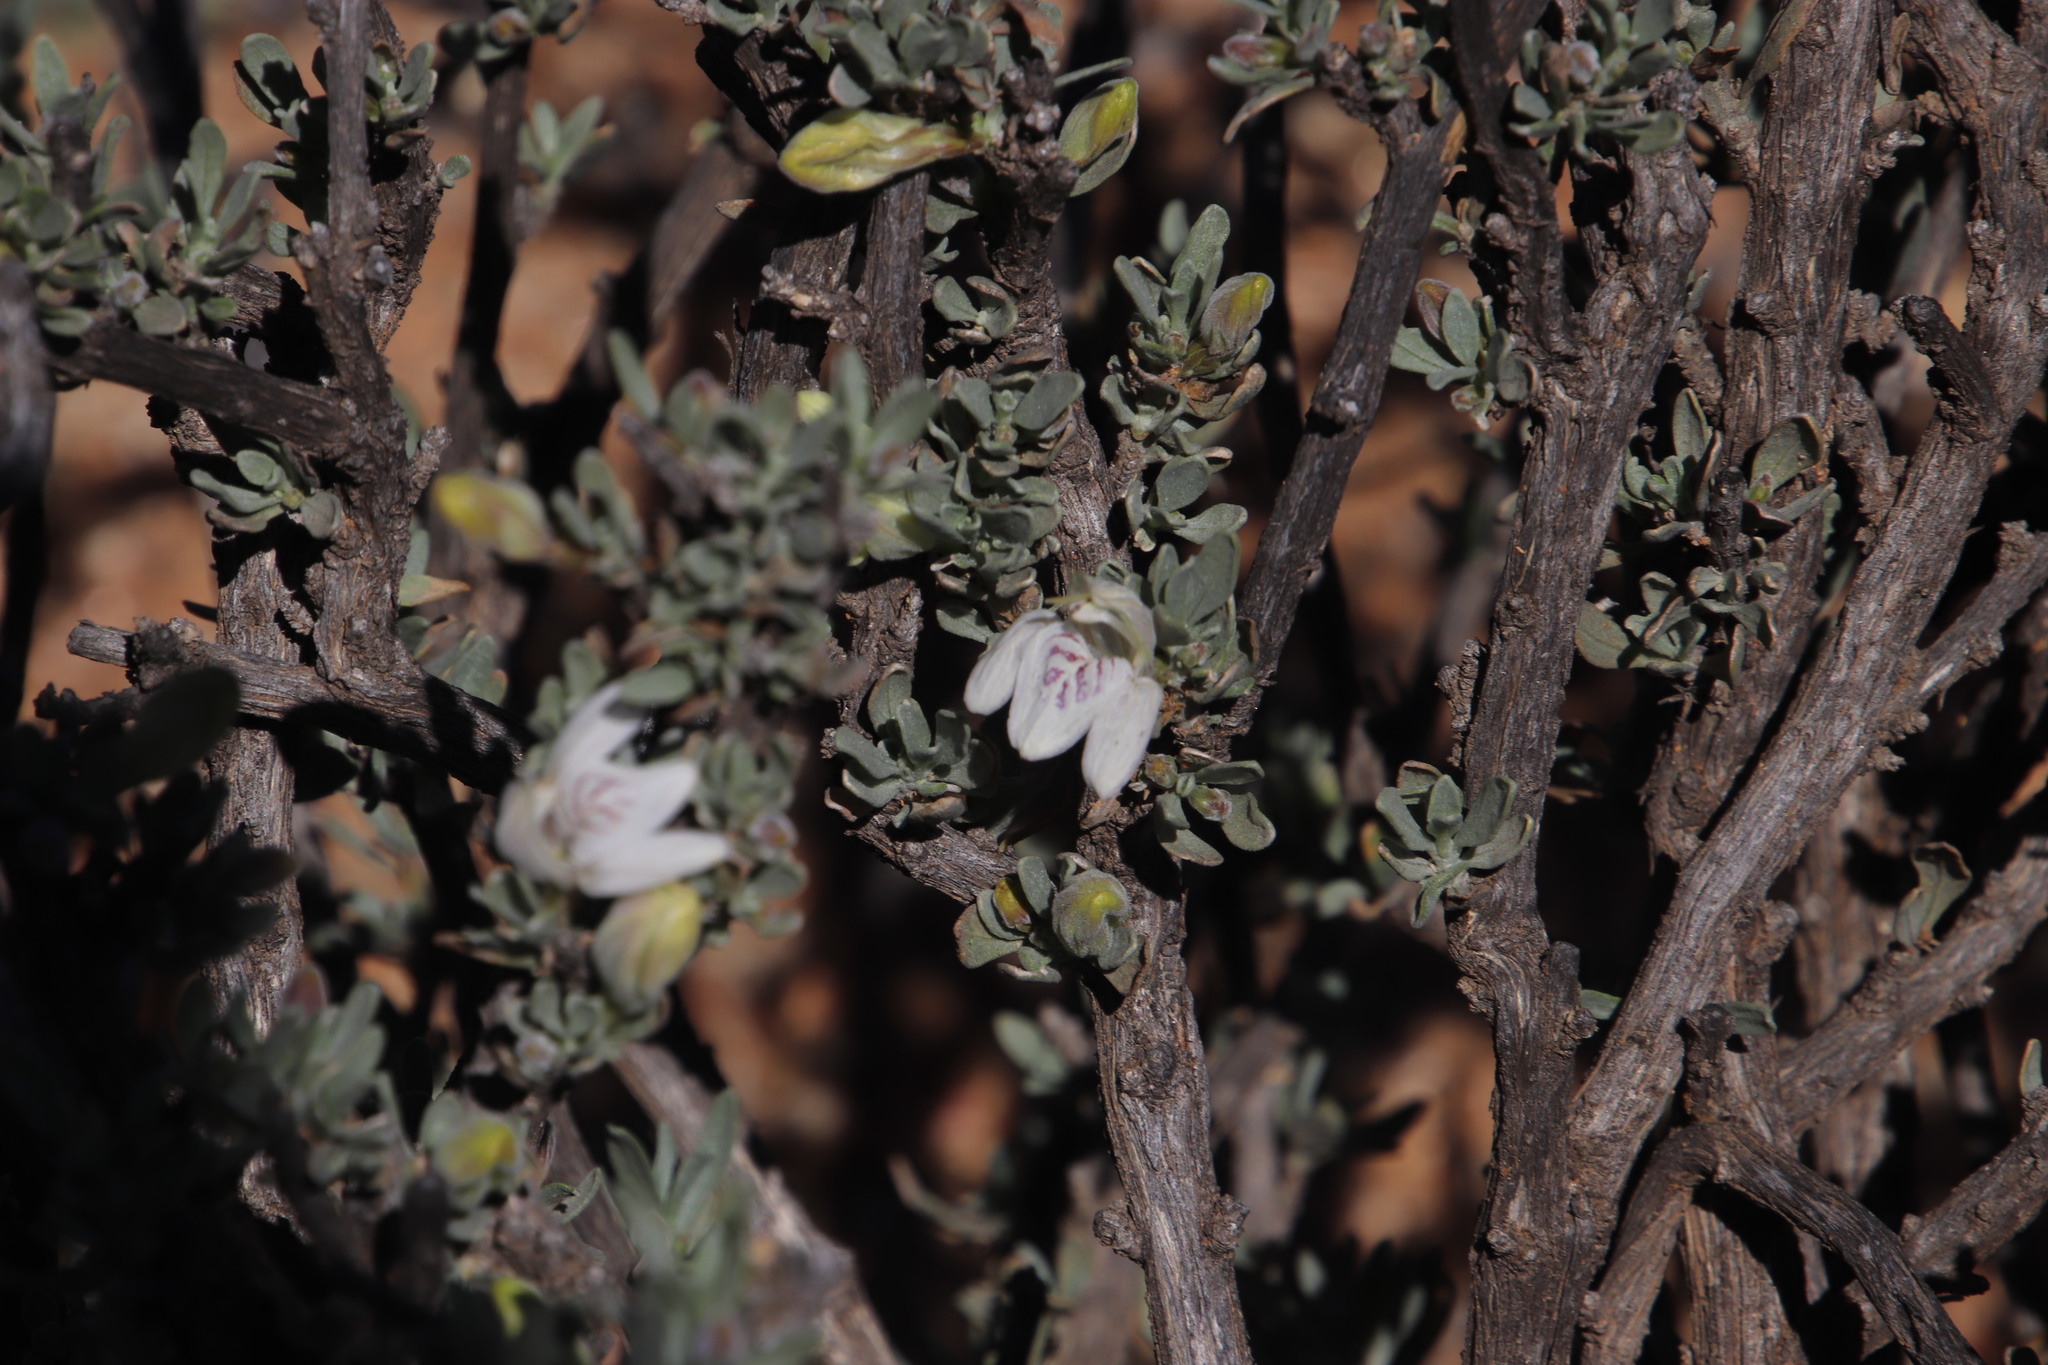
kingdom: Plantae
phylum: Tracheophyta
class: Magnoliopsida
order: Lamiales
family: Acanthaceae
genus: Pogonospermum
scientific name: Pogonospermum
